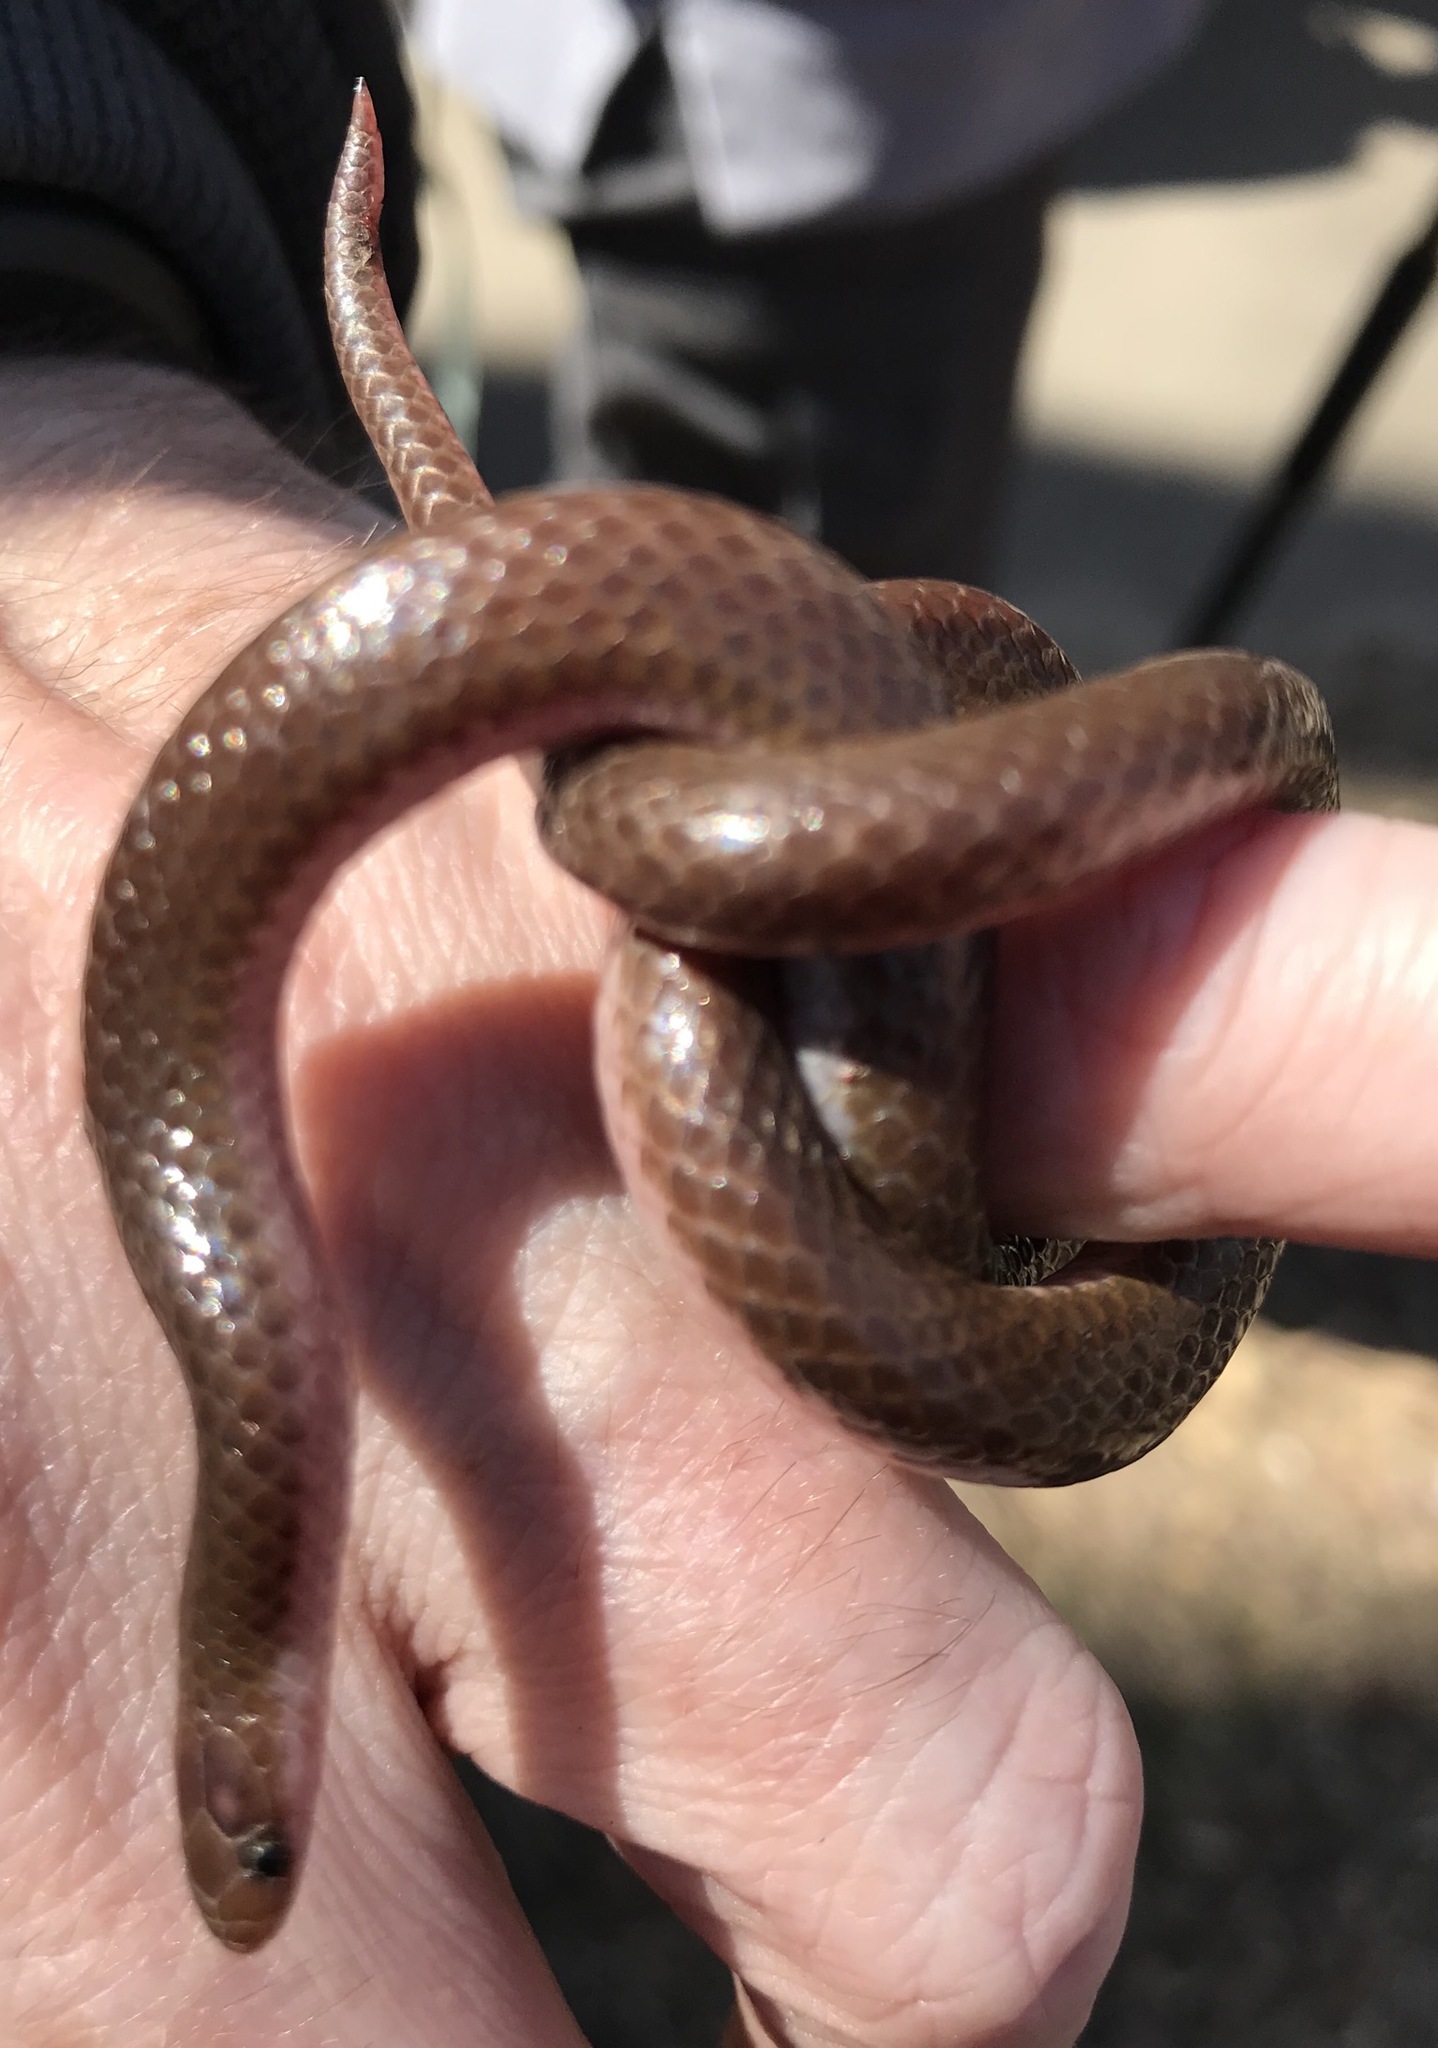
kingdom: Animalia
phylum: Chordata
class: Squamata
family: Colubridae
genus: Carphophis
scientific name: Carphophis amoenus
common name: Eastern worm snake
